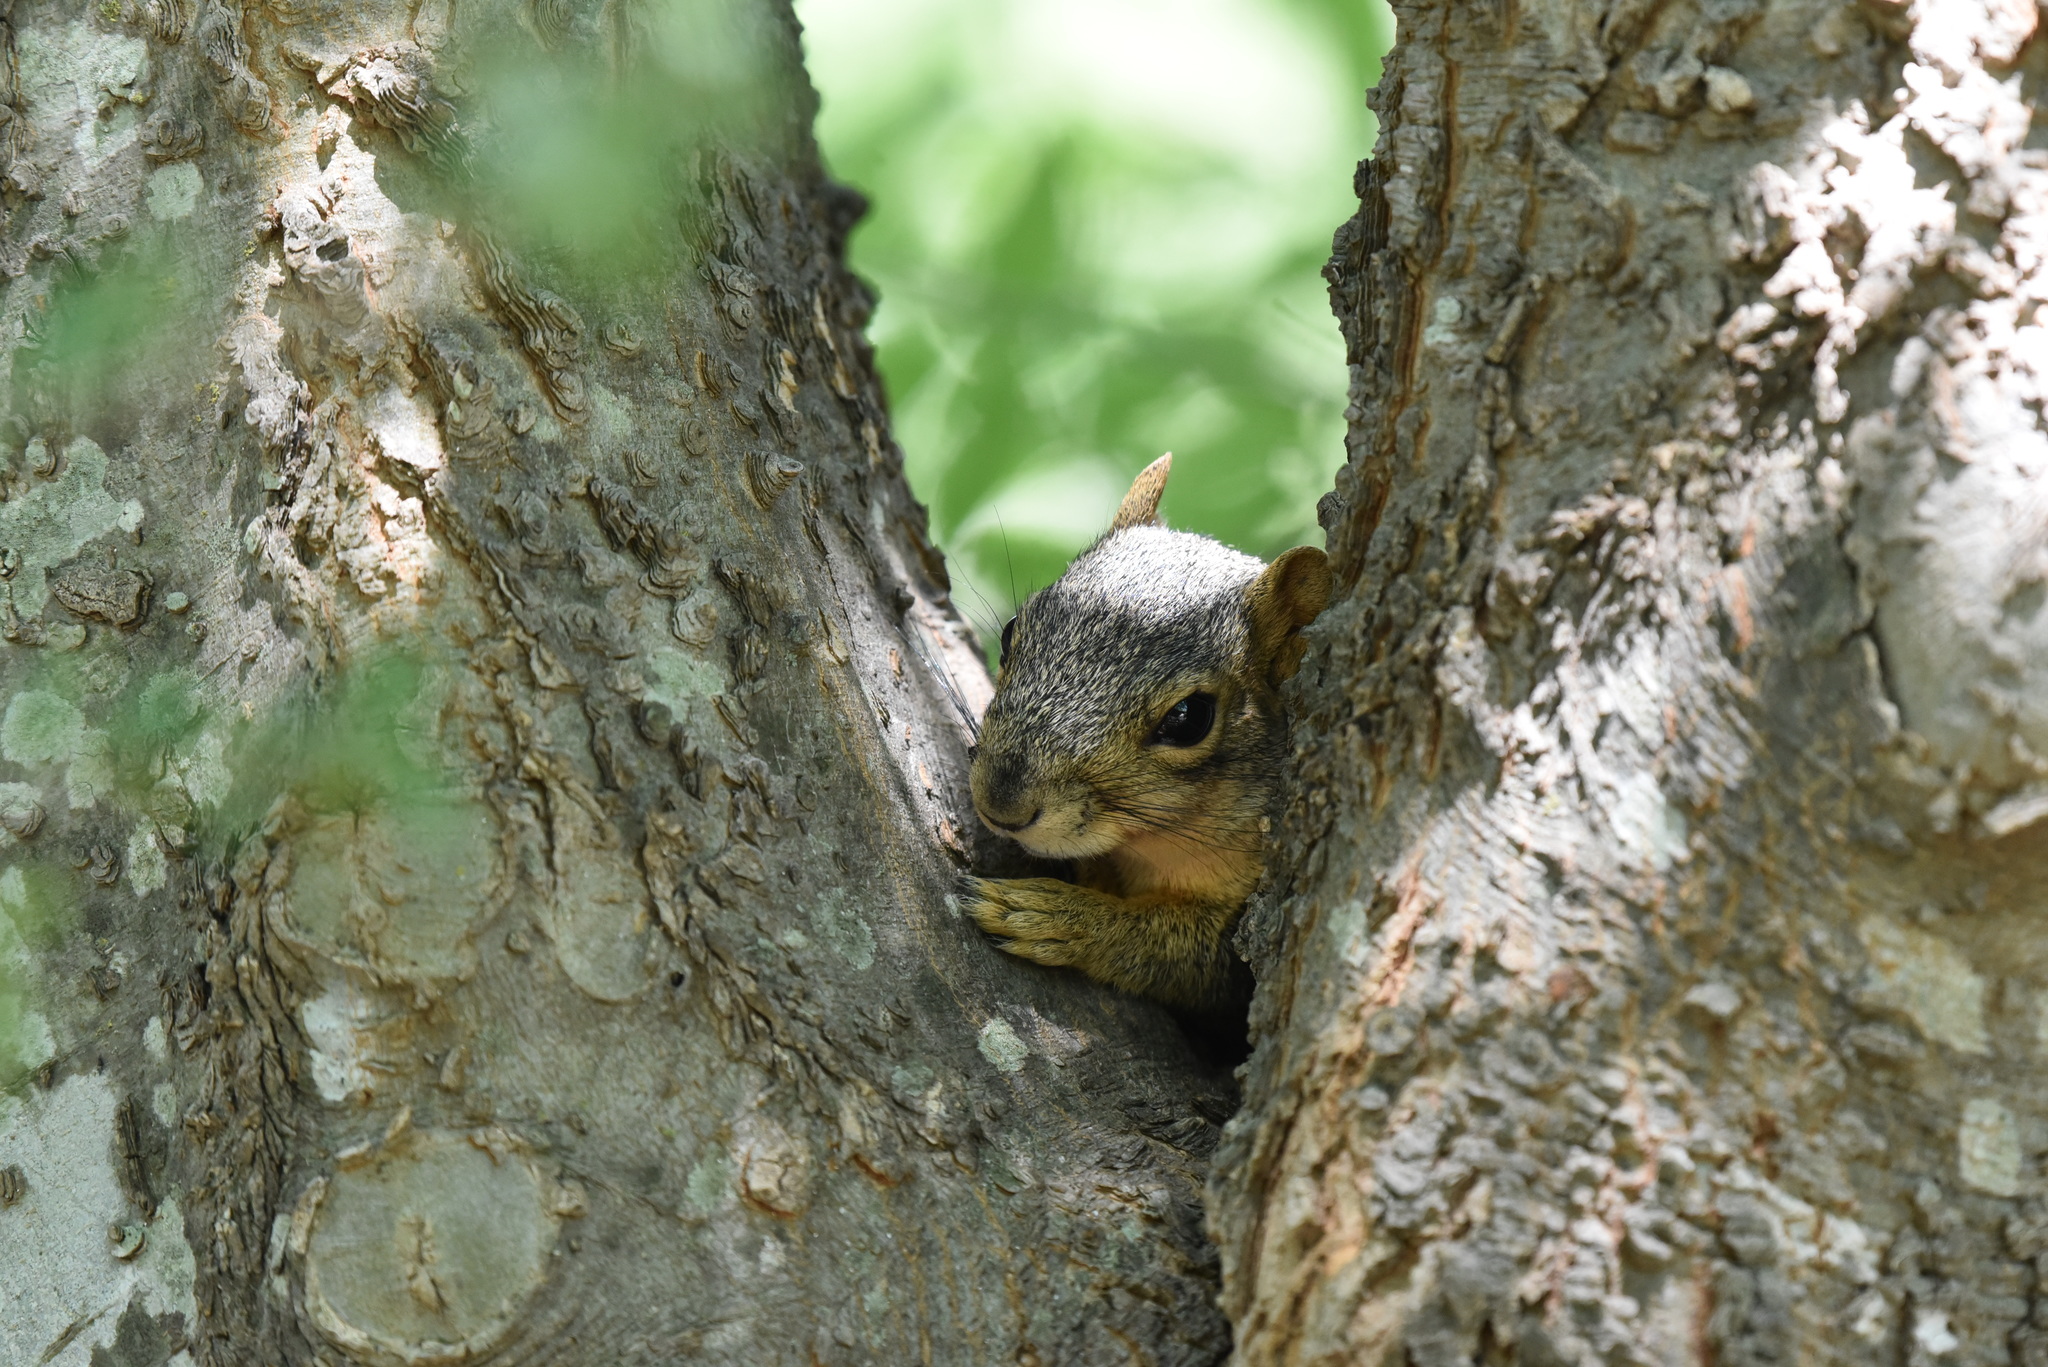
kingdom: Animalia
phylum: Chordata
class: Mammalia
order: Rodentia
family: Sciuridae
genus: Sciurus
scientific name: Sciurus niger
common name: Fox squirrel
